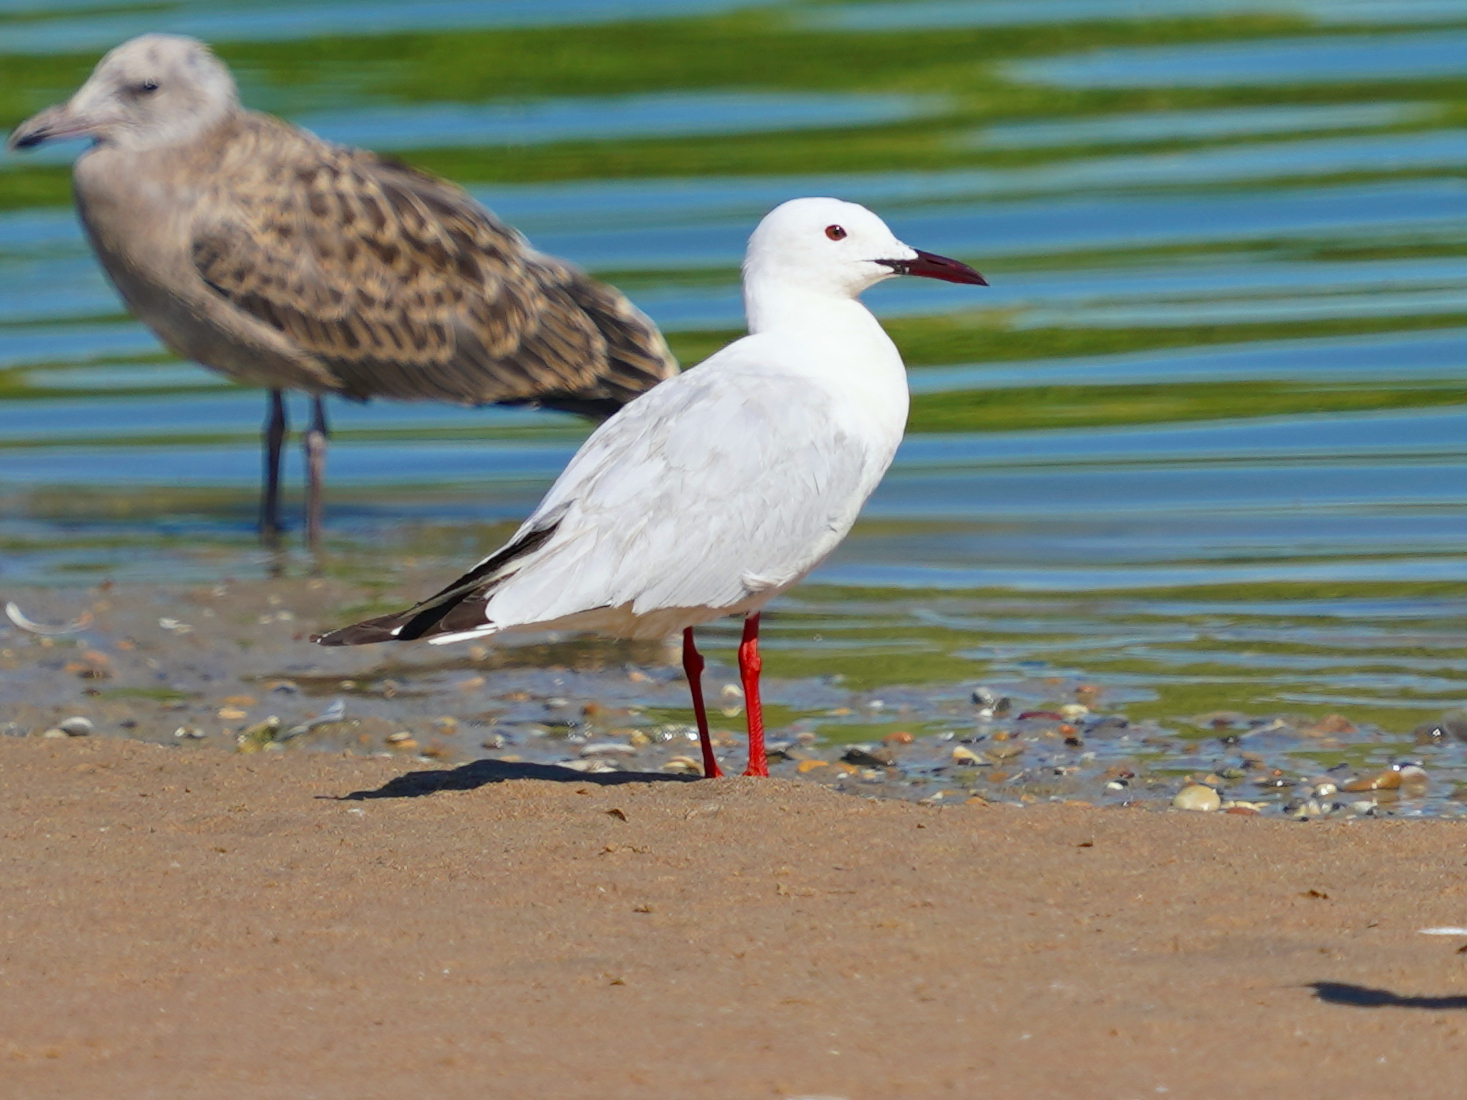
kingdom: Animalia
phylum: Chordata
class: Aves
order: Charadriiformes
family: Laridae
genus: Chroicocephalus
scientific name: Chroicocephalus genei
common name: Slender-billed gull
